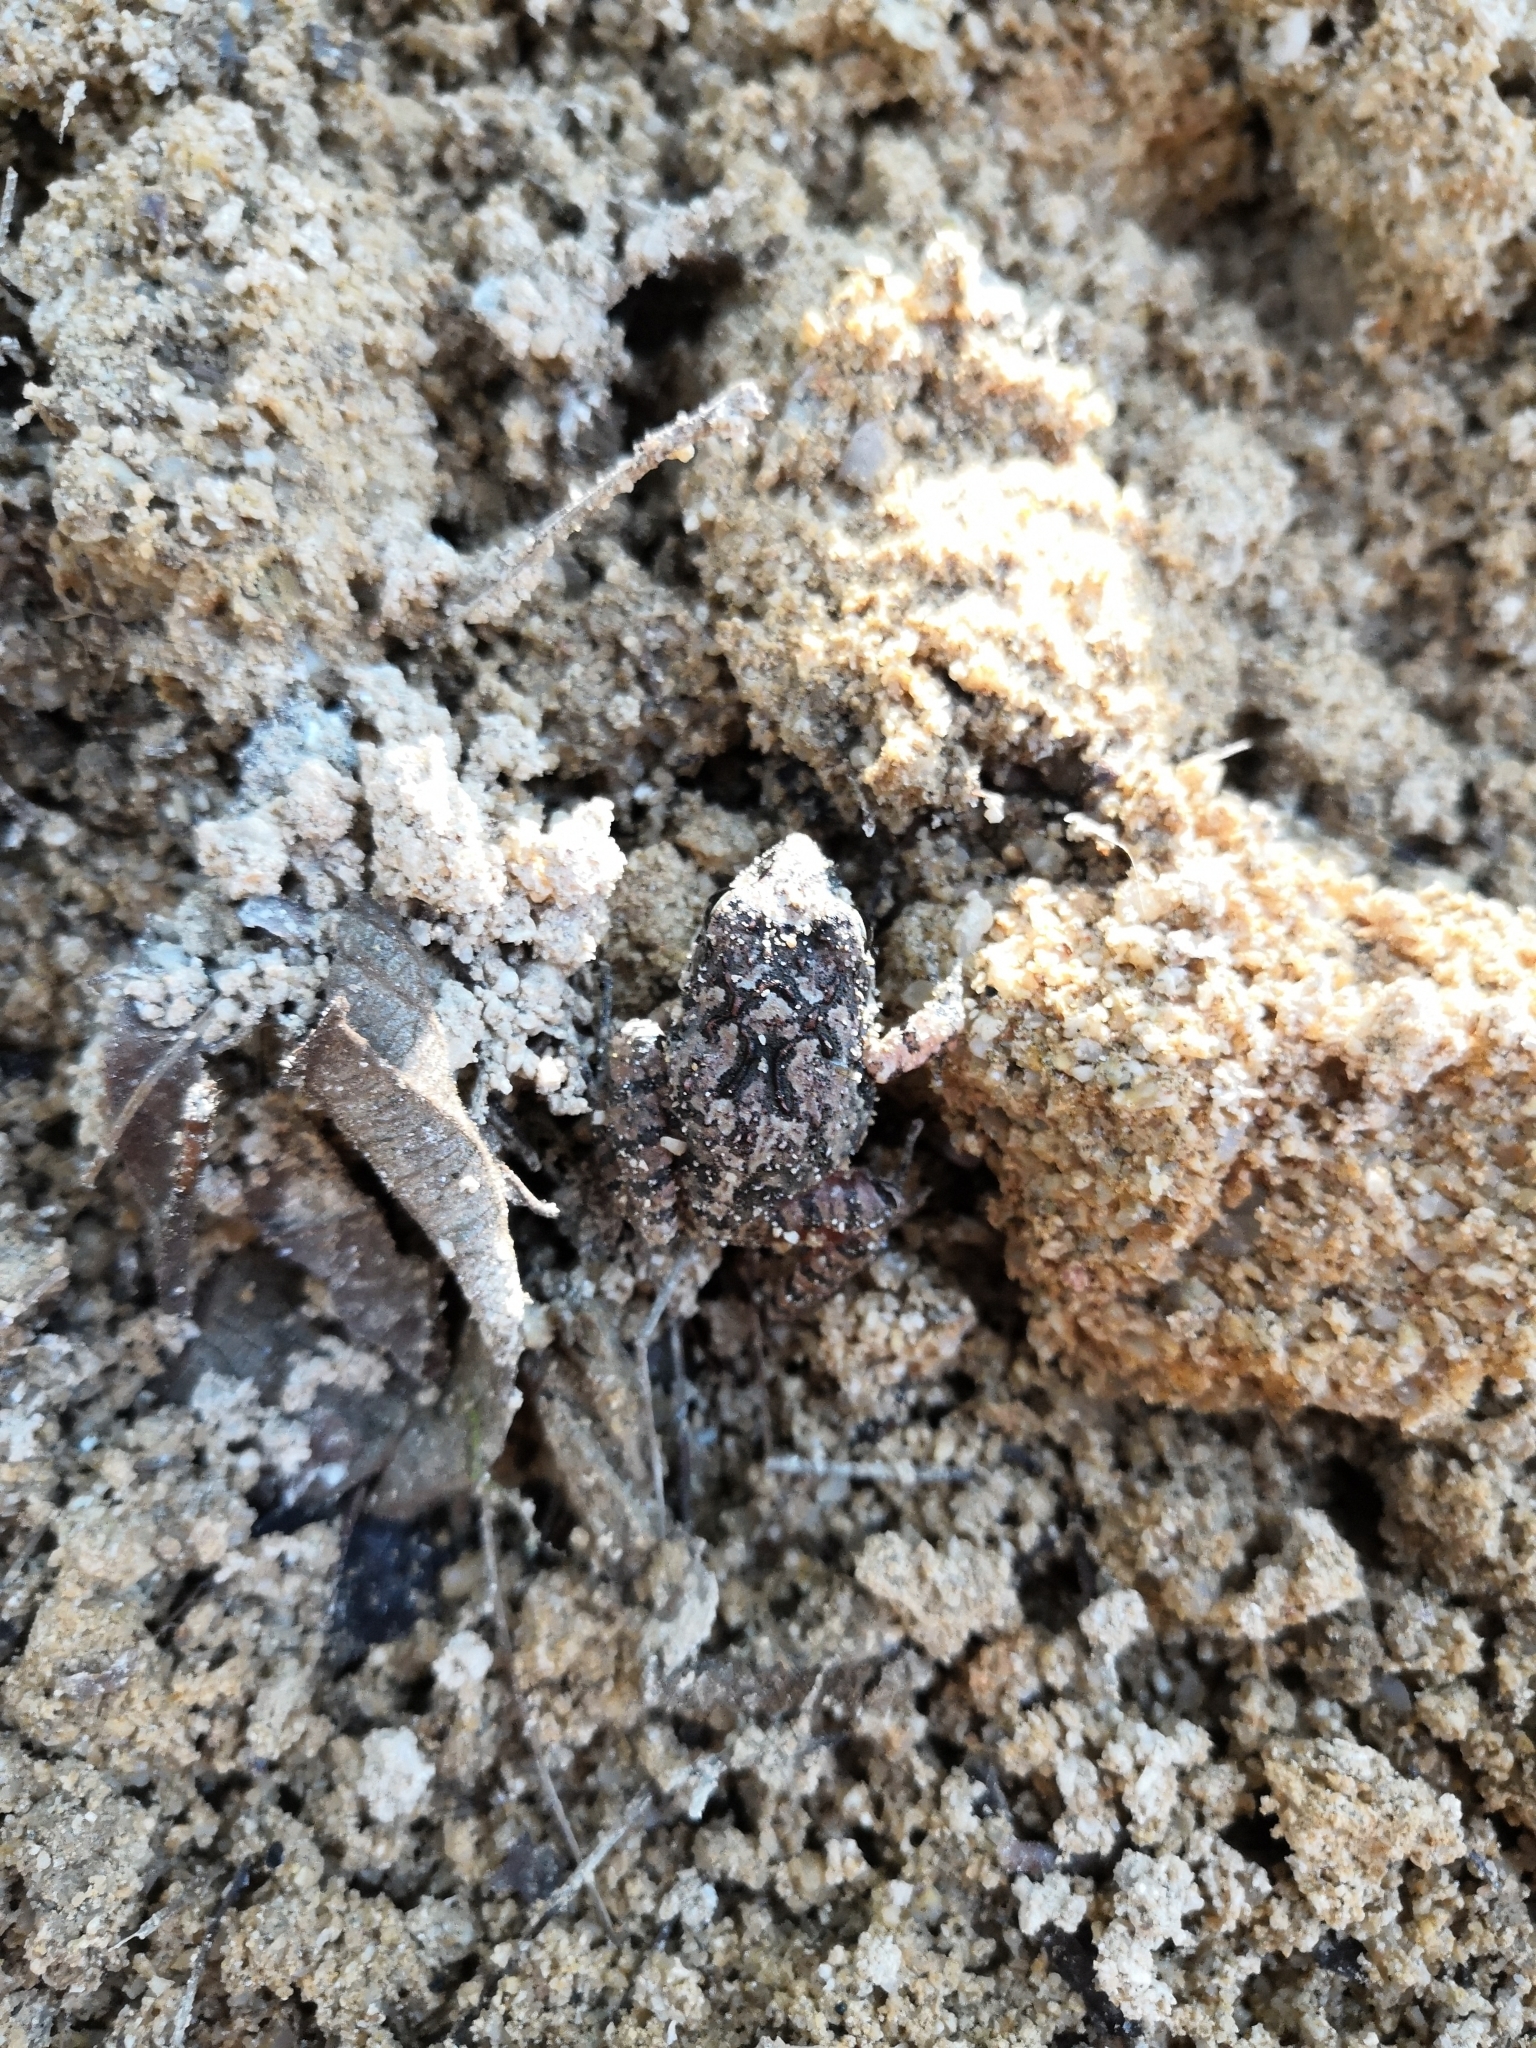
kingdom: Animalia
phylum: Chordata
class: Amphibia
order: Anura
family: Craugastoridae
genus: Craugastor
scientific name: Craugastor occidentalis
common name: Taylor's barking frog
